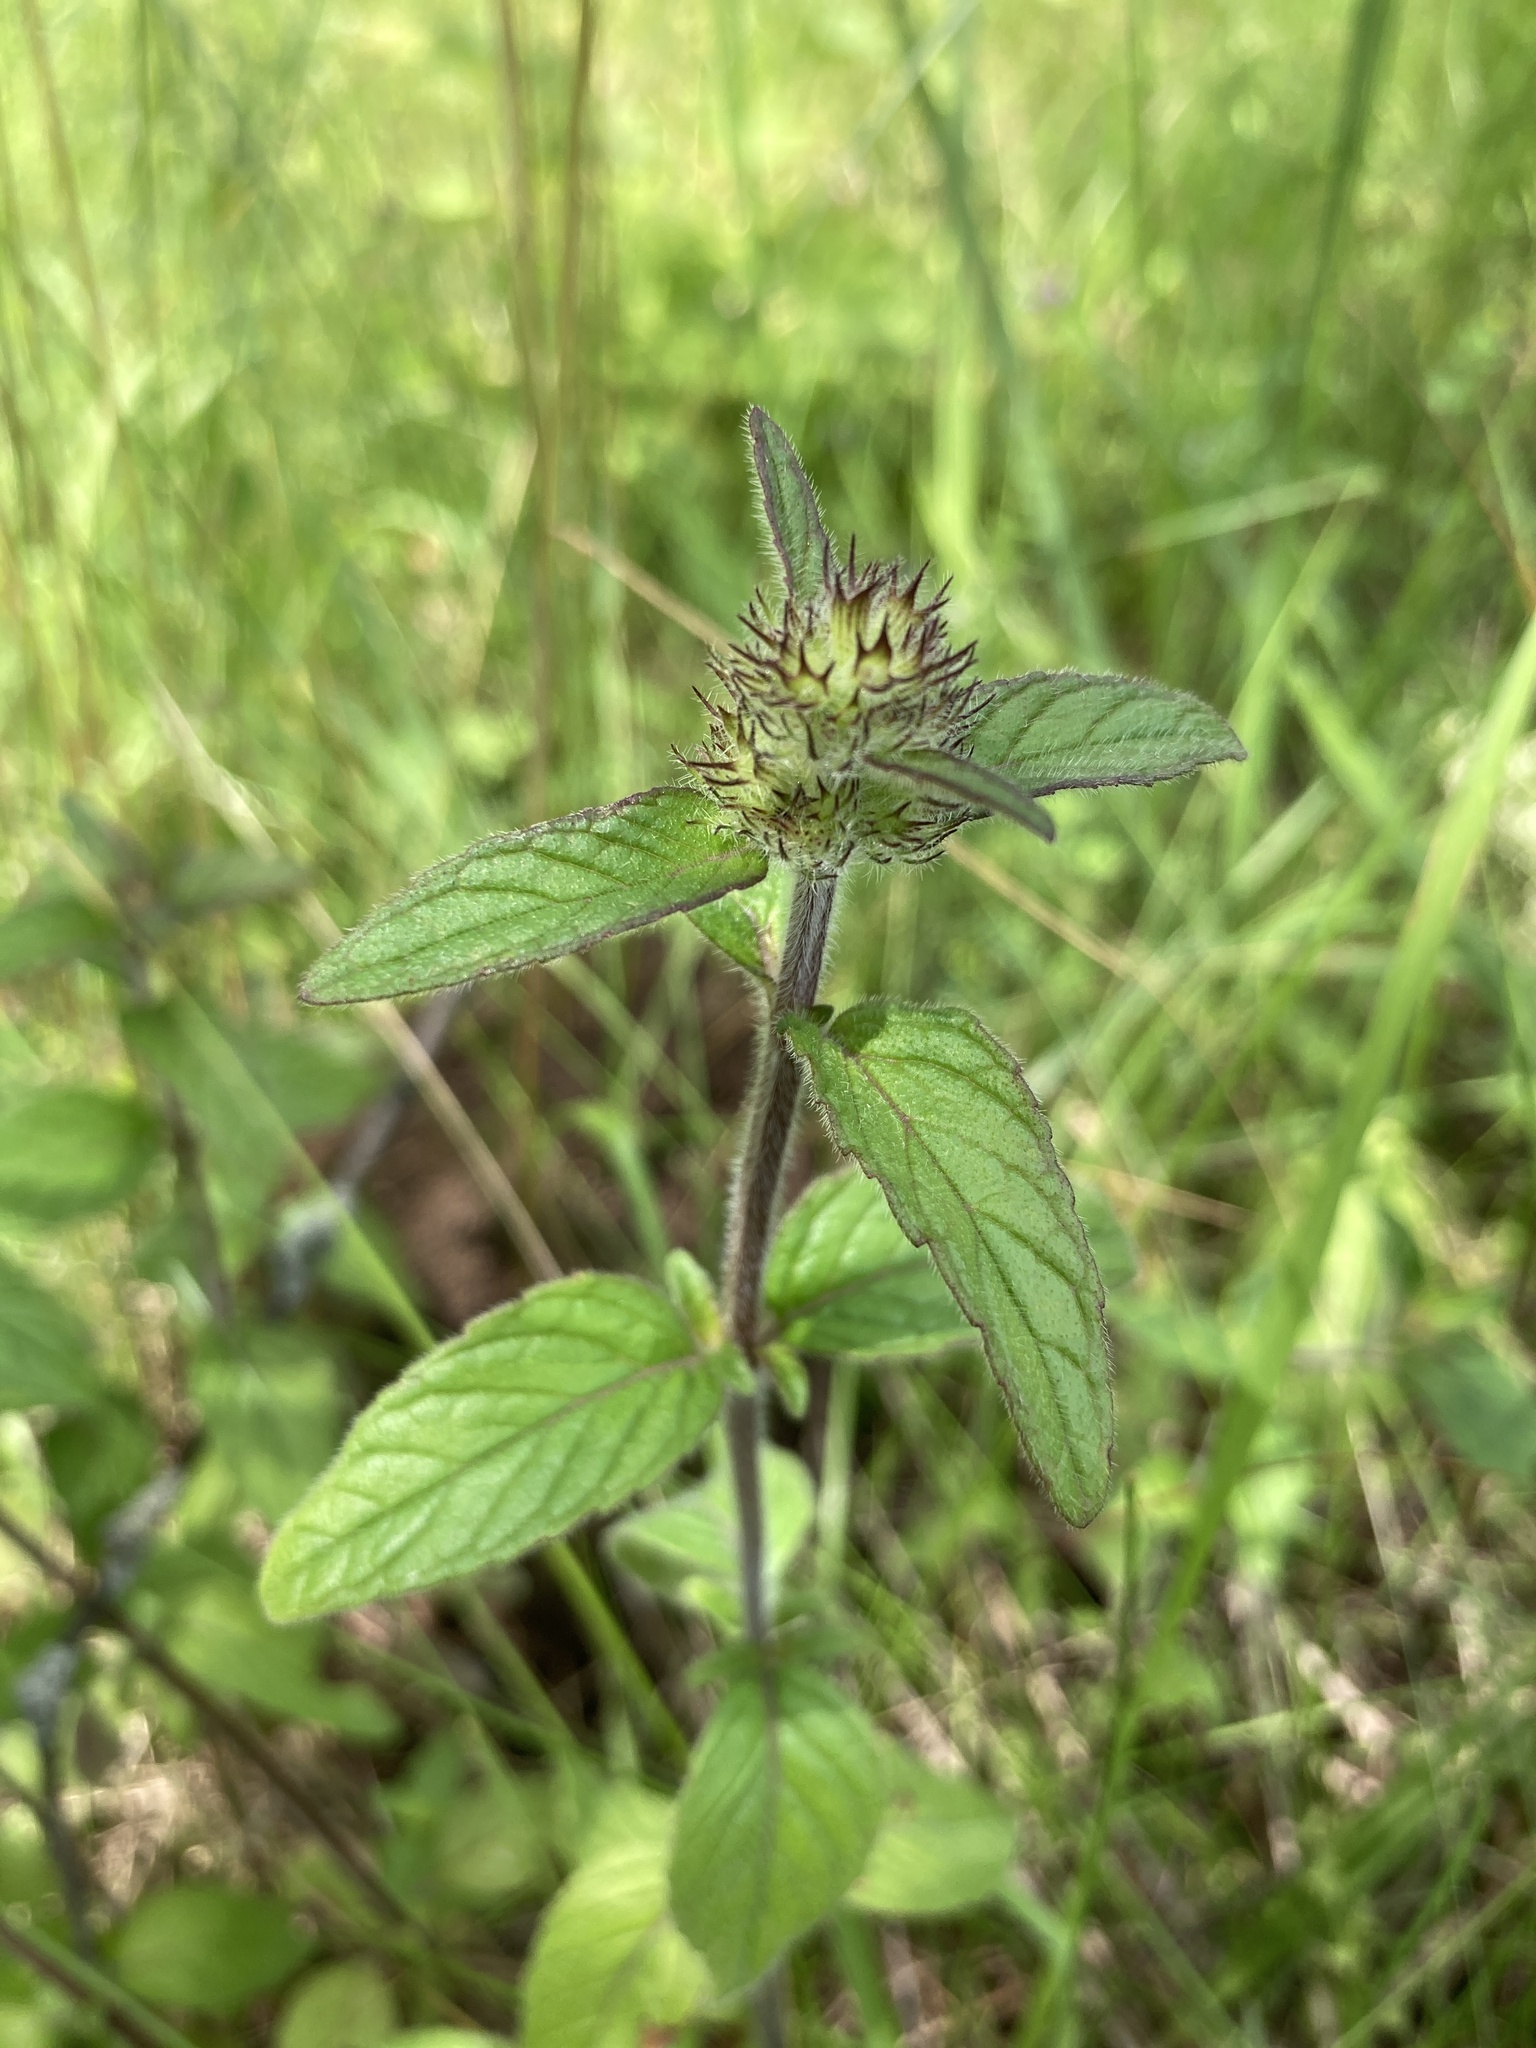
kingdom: Plantae
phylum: Tracheophyta
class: Magnoliopsida
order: Lamiales
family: Lamiaceae
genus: Clinopodium
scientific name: Clinopodium vulgare
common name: Wild basil
